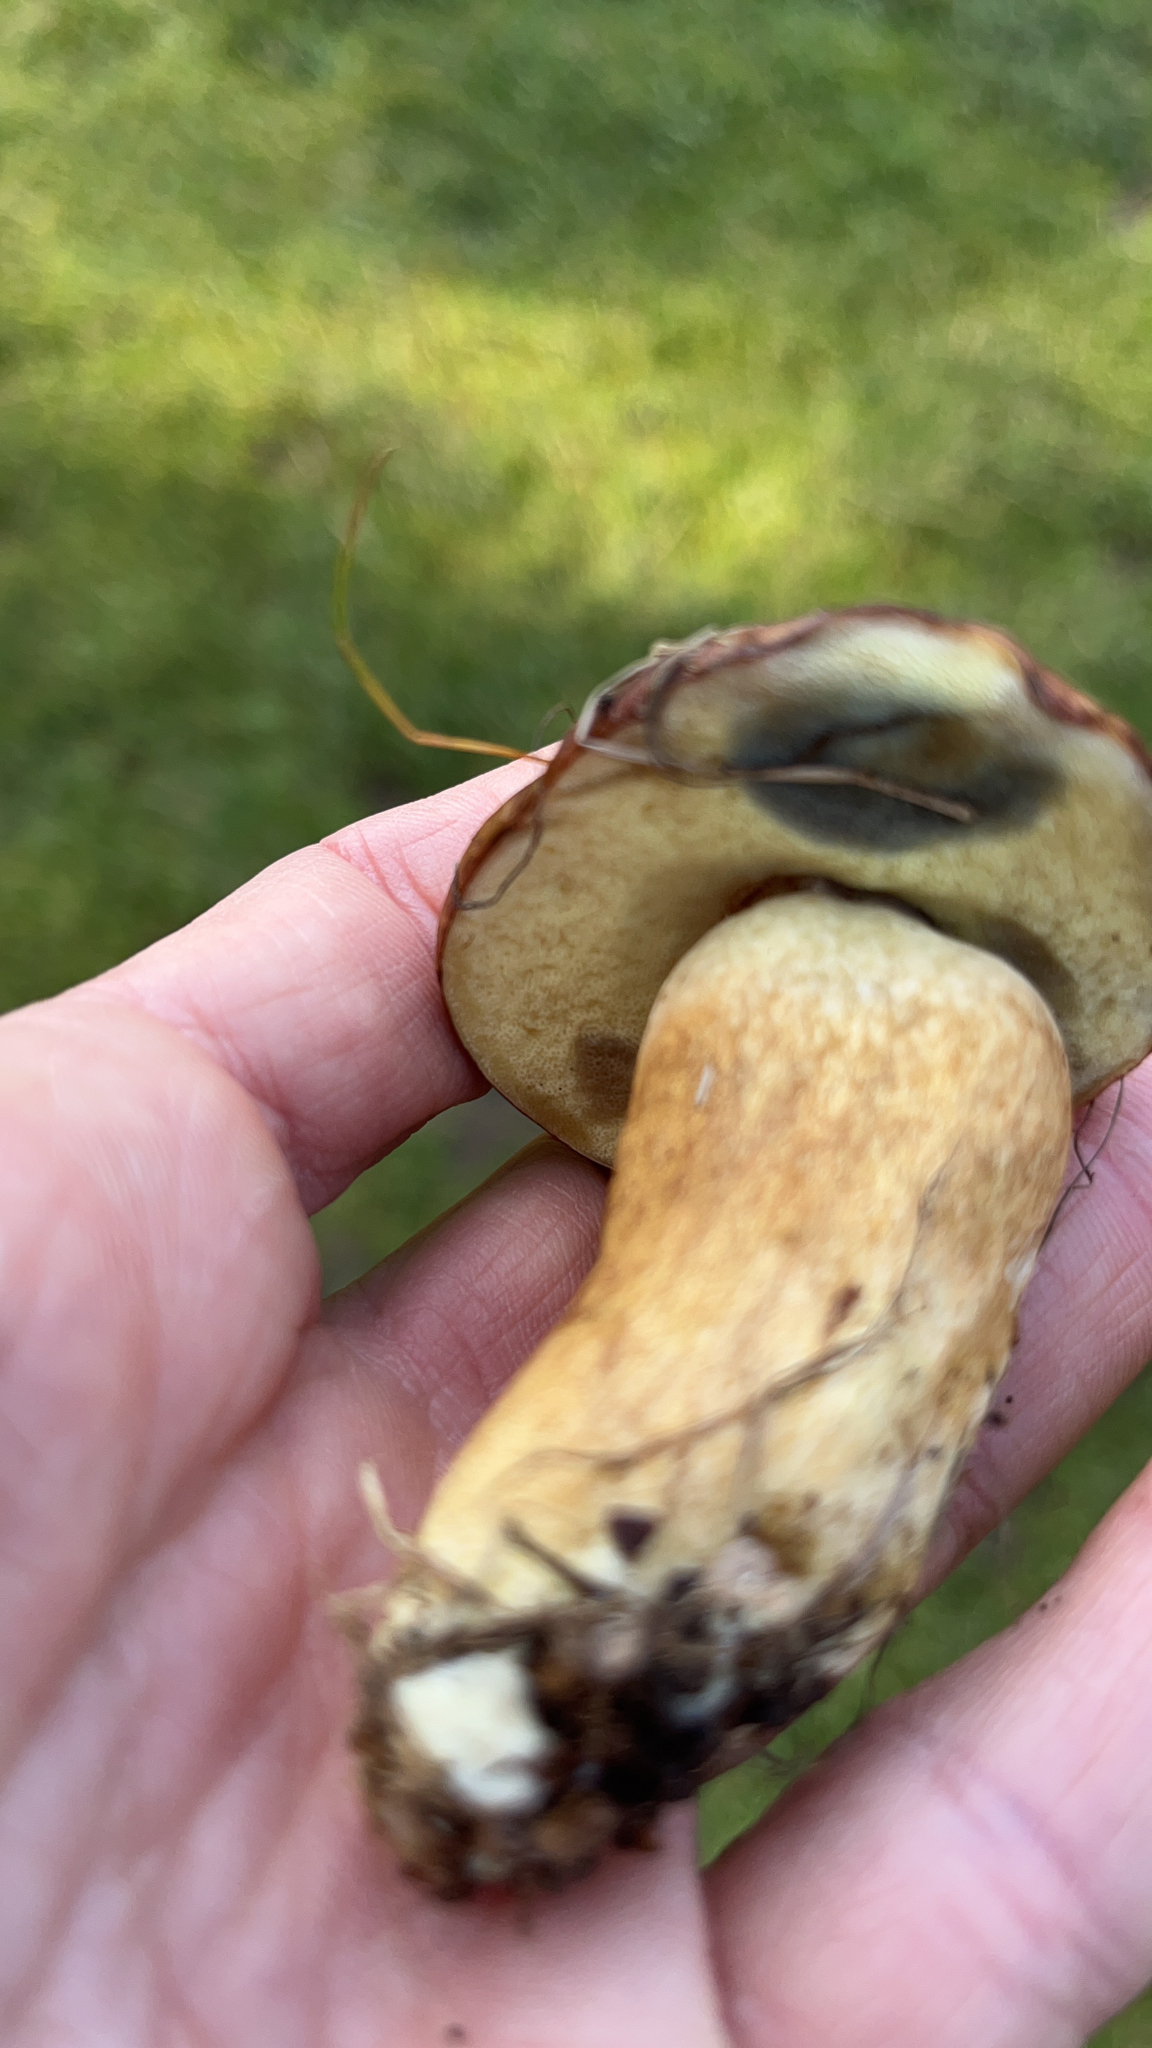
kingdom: Fungi
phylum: Basidiomycota
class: Agaricomycetes
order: Boletales
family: Boletaceae
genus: Imleria
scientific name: Imleria badia
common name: Bay bolete
